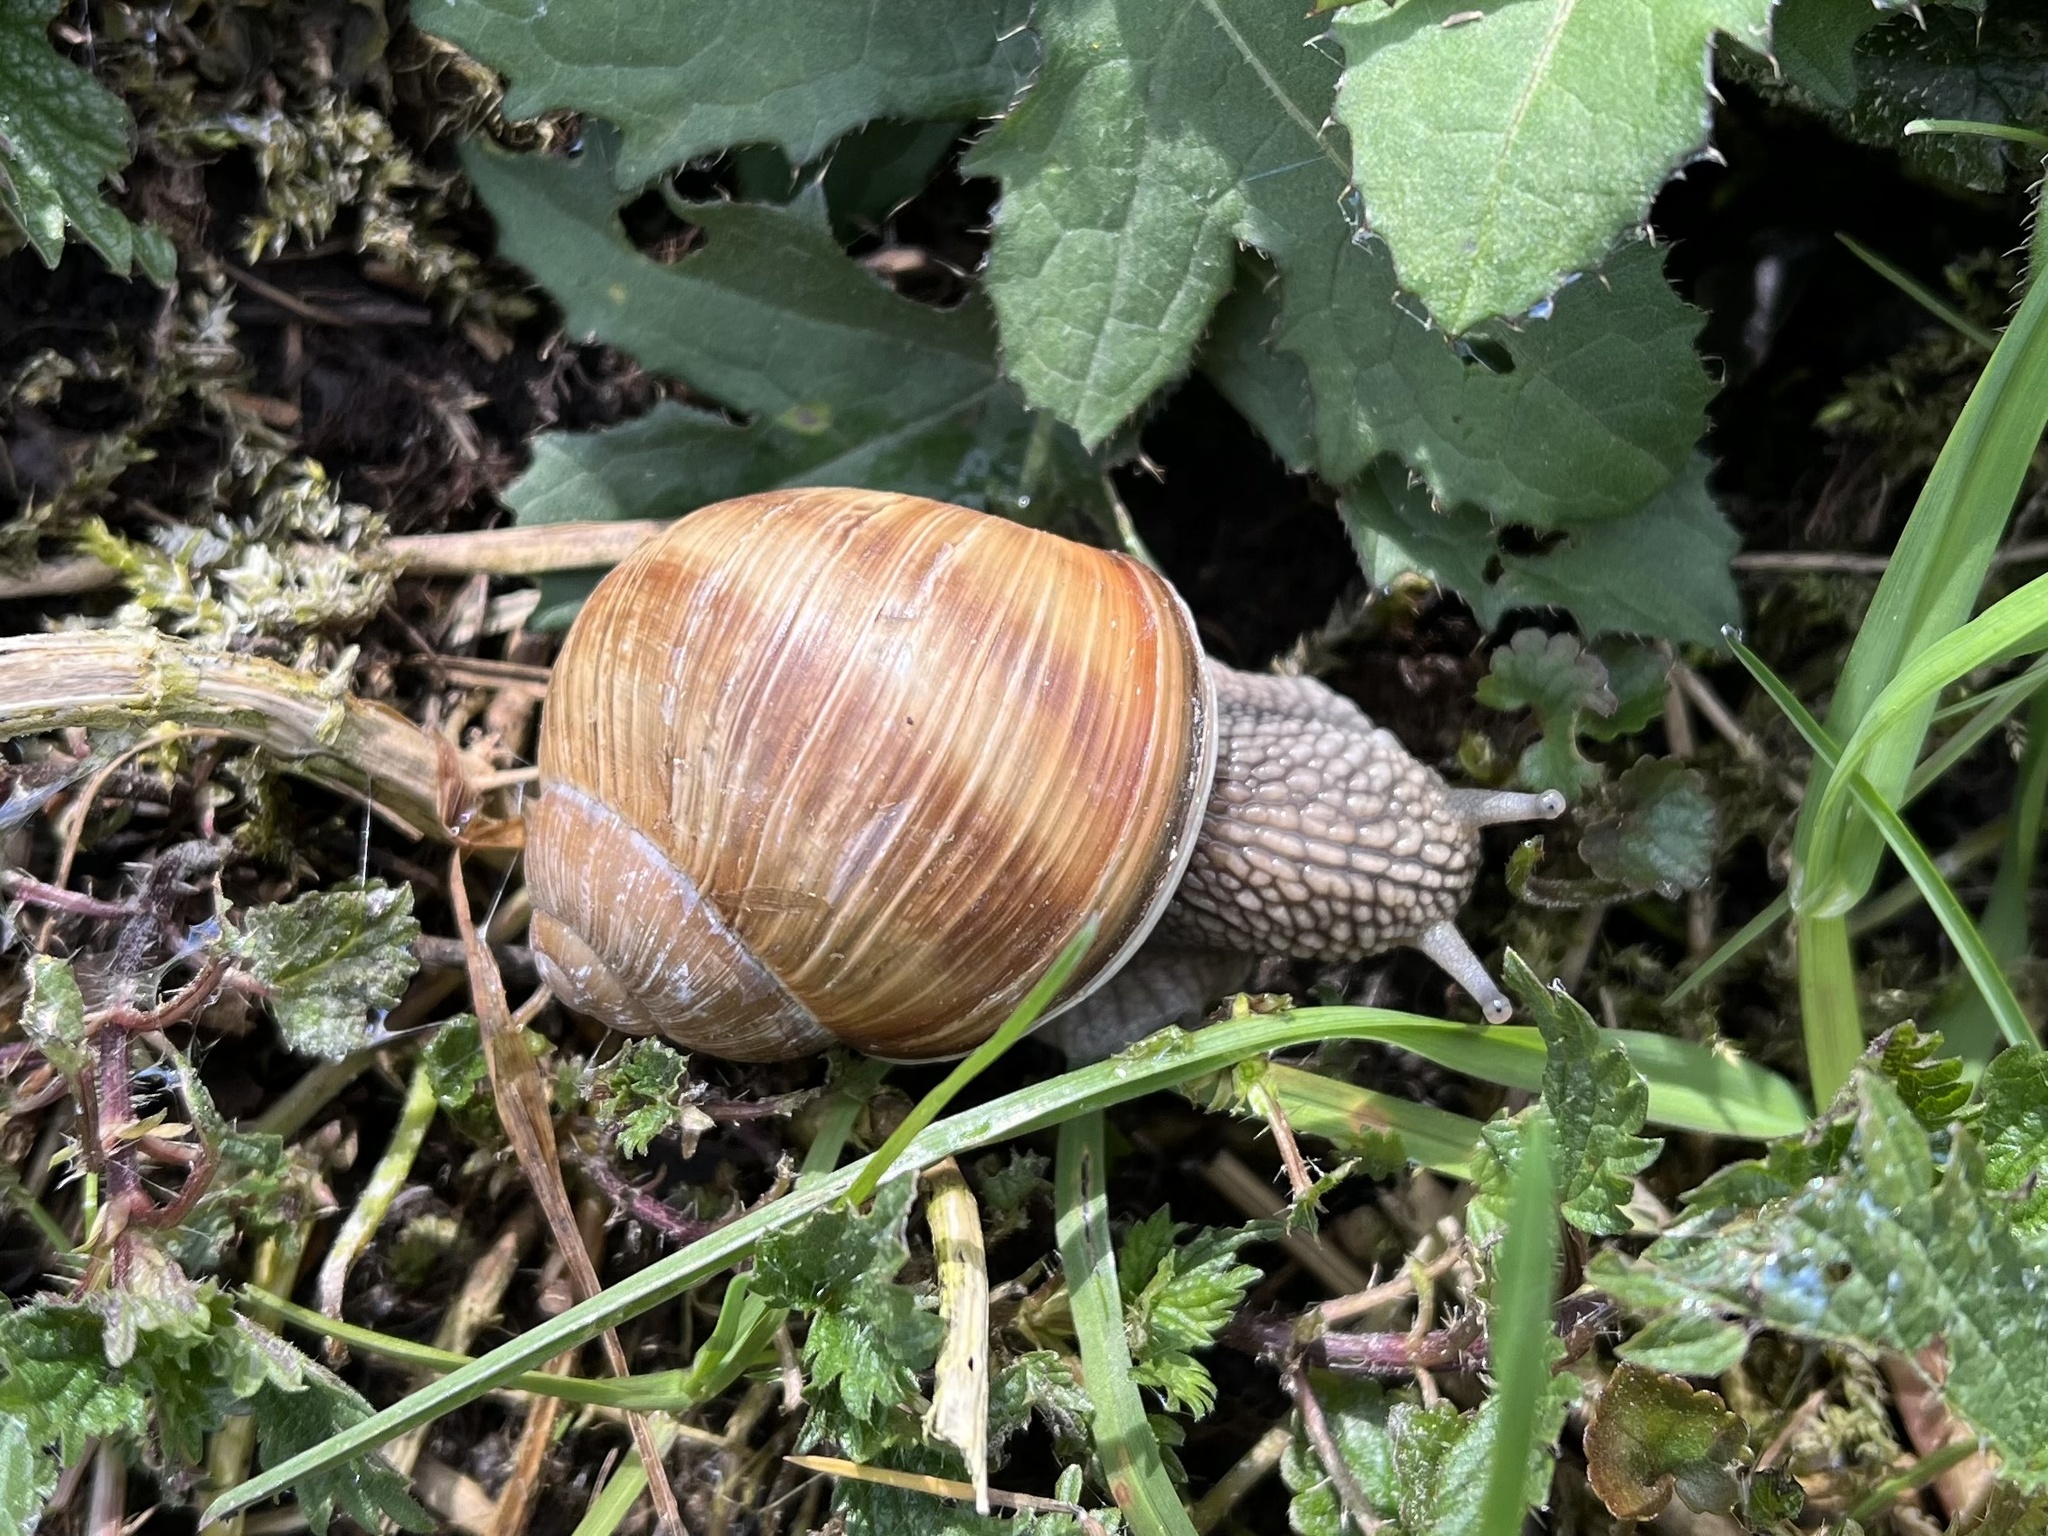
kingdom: Animalia
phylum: Mollusca
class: Gastropoda
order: Stylommatophora
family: Helicidae
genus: Helix
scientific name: Helix pomatia
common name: Roman snail
